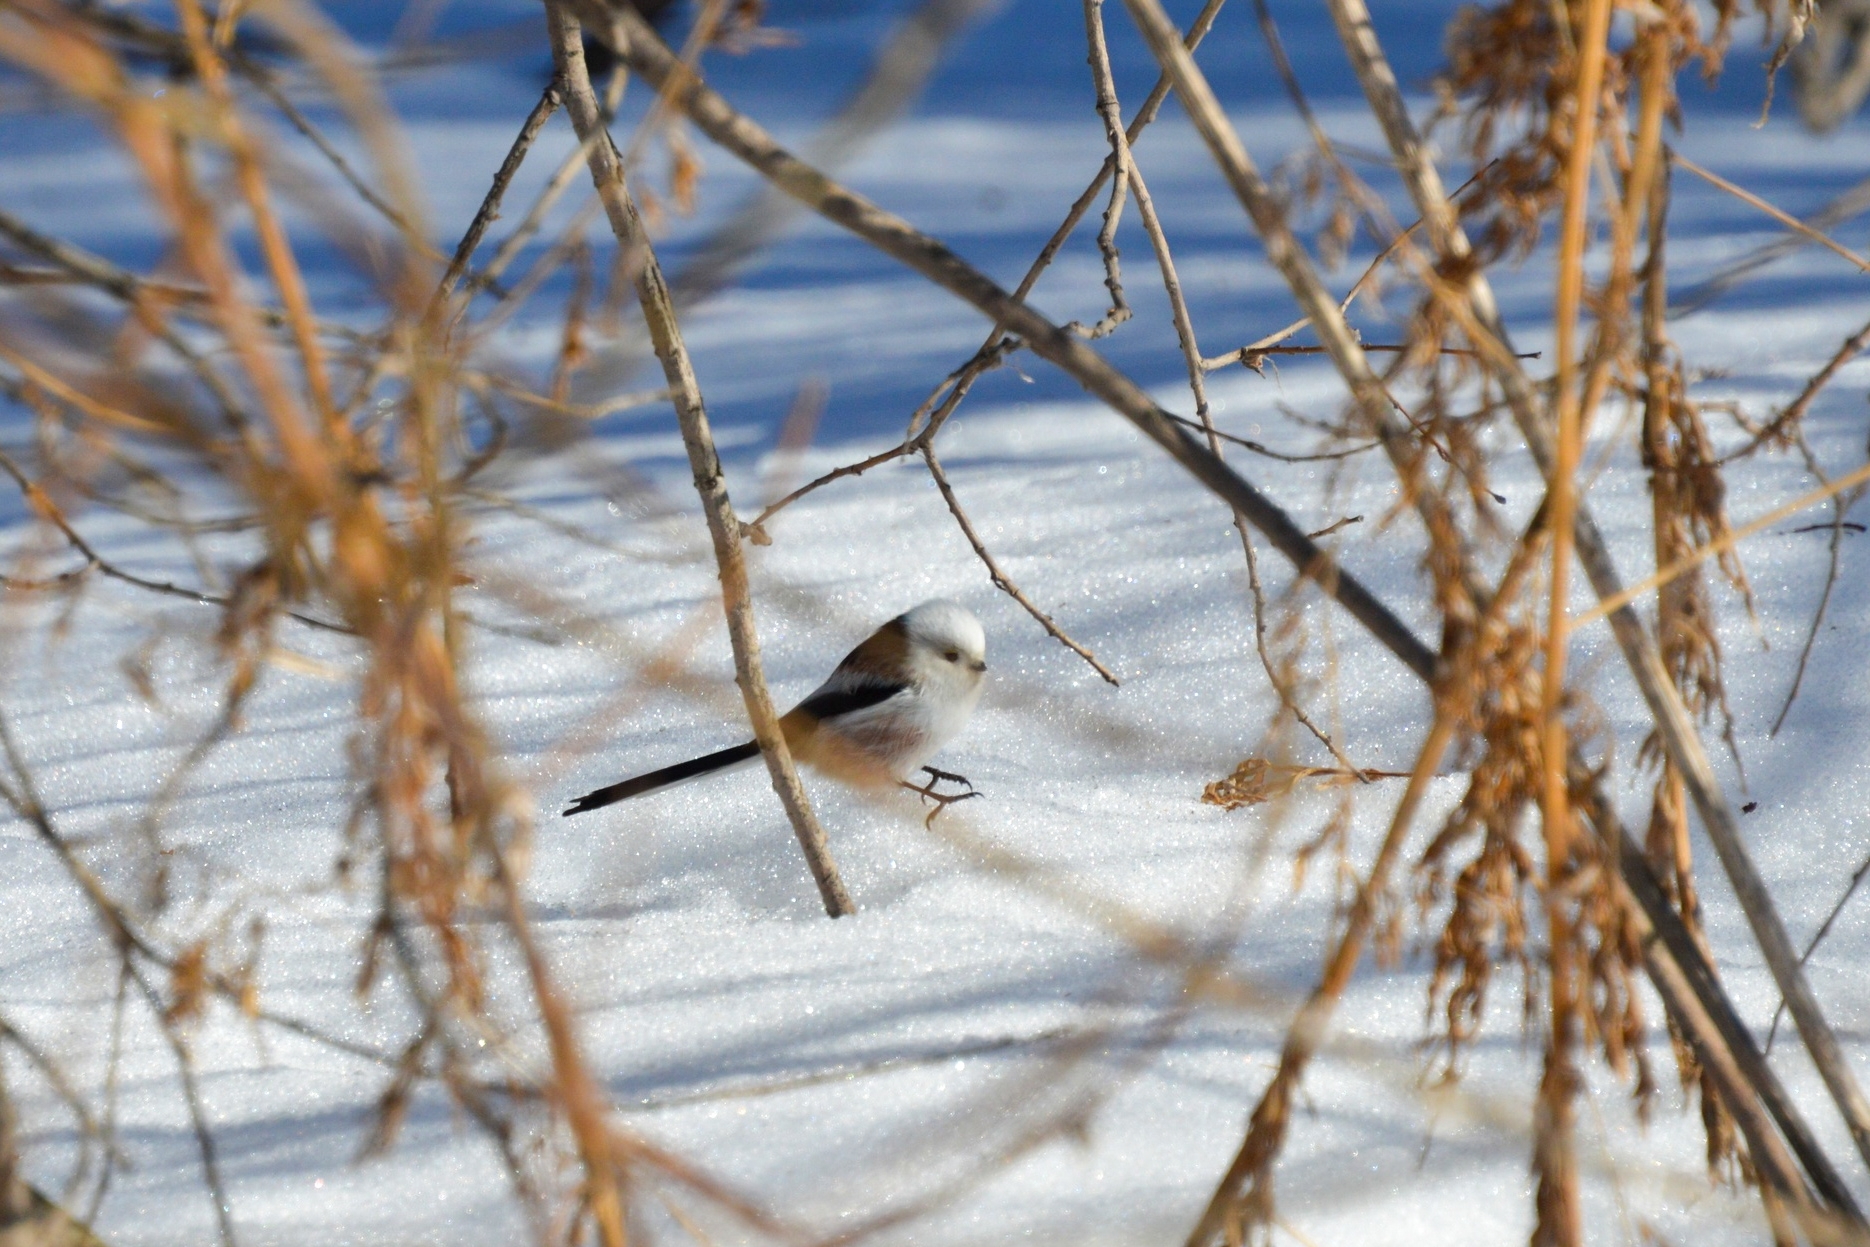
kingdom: Animalia
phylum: Chordata
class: Aves
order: Passeriformes
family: Aegithalidae
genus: Aegithalos
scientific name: Aegithalos caudatus
